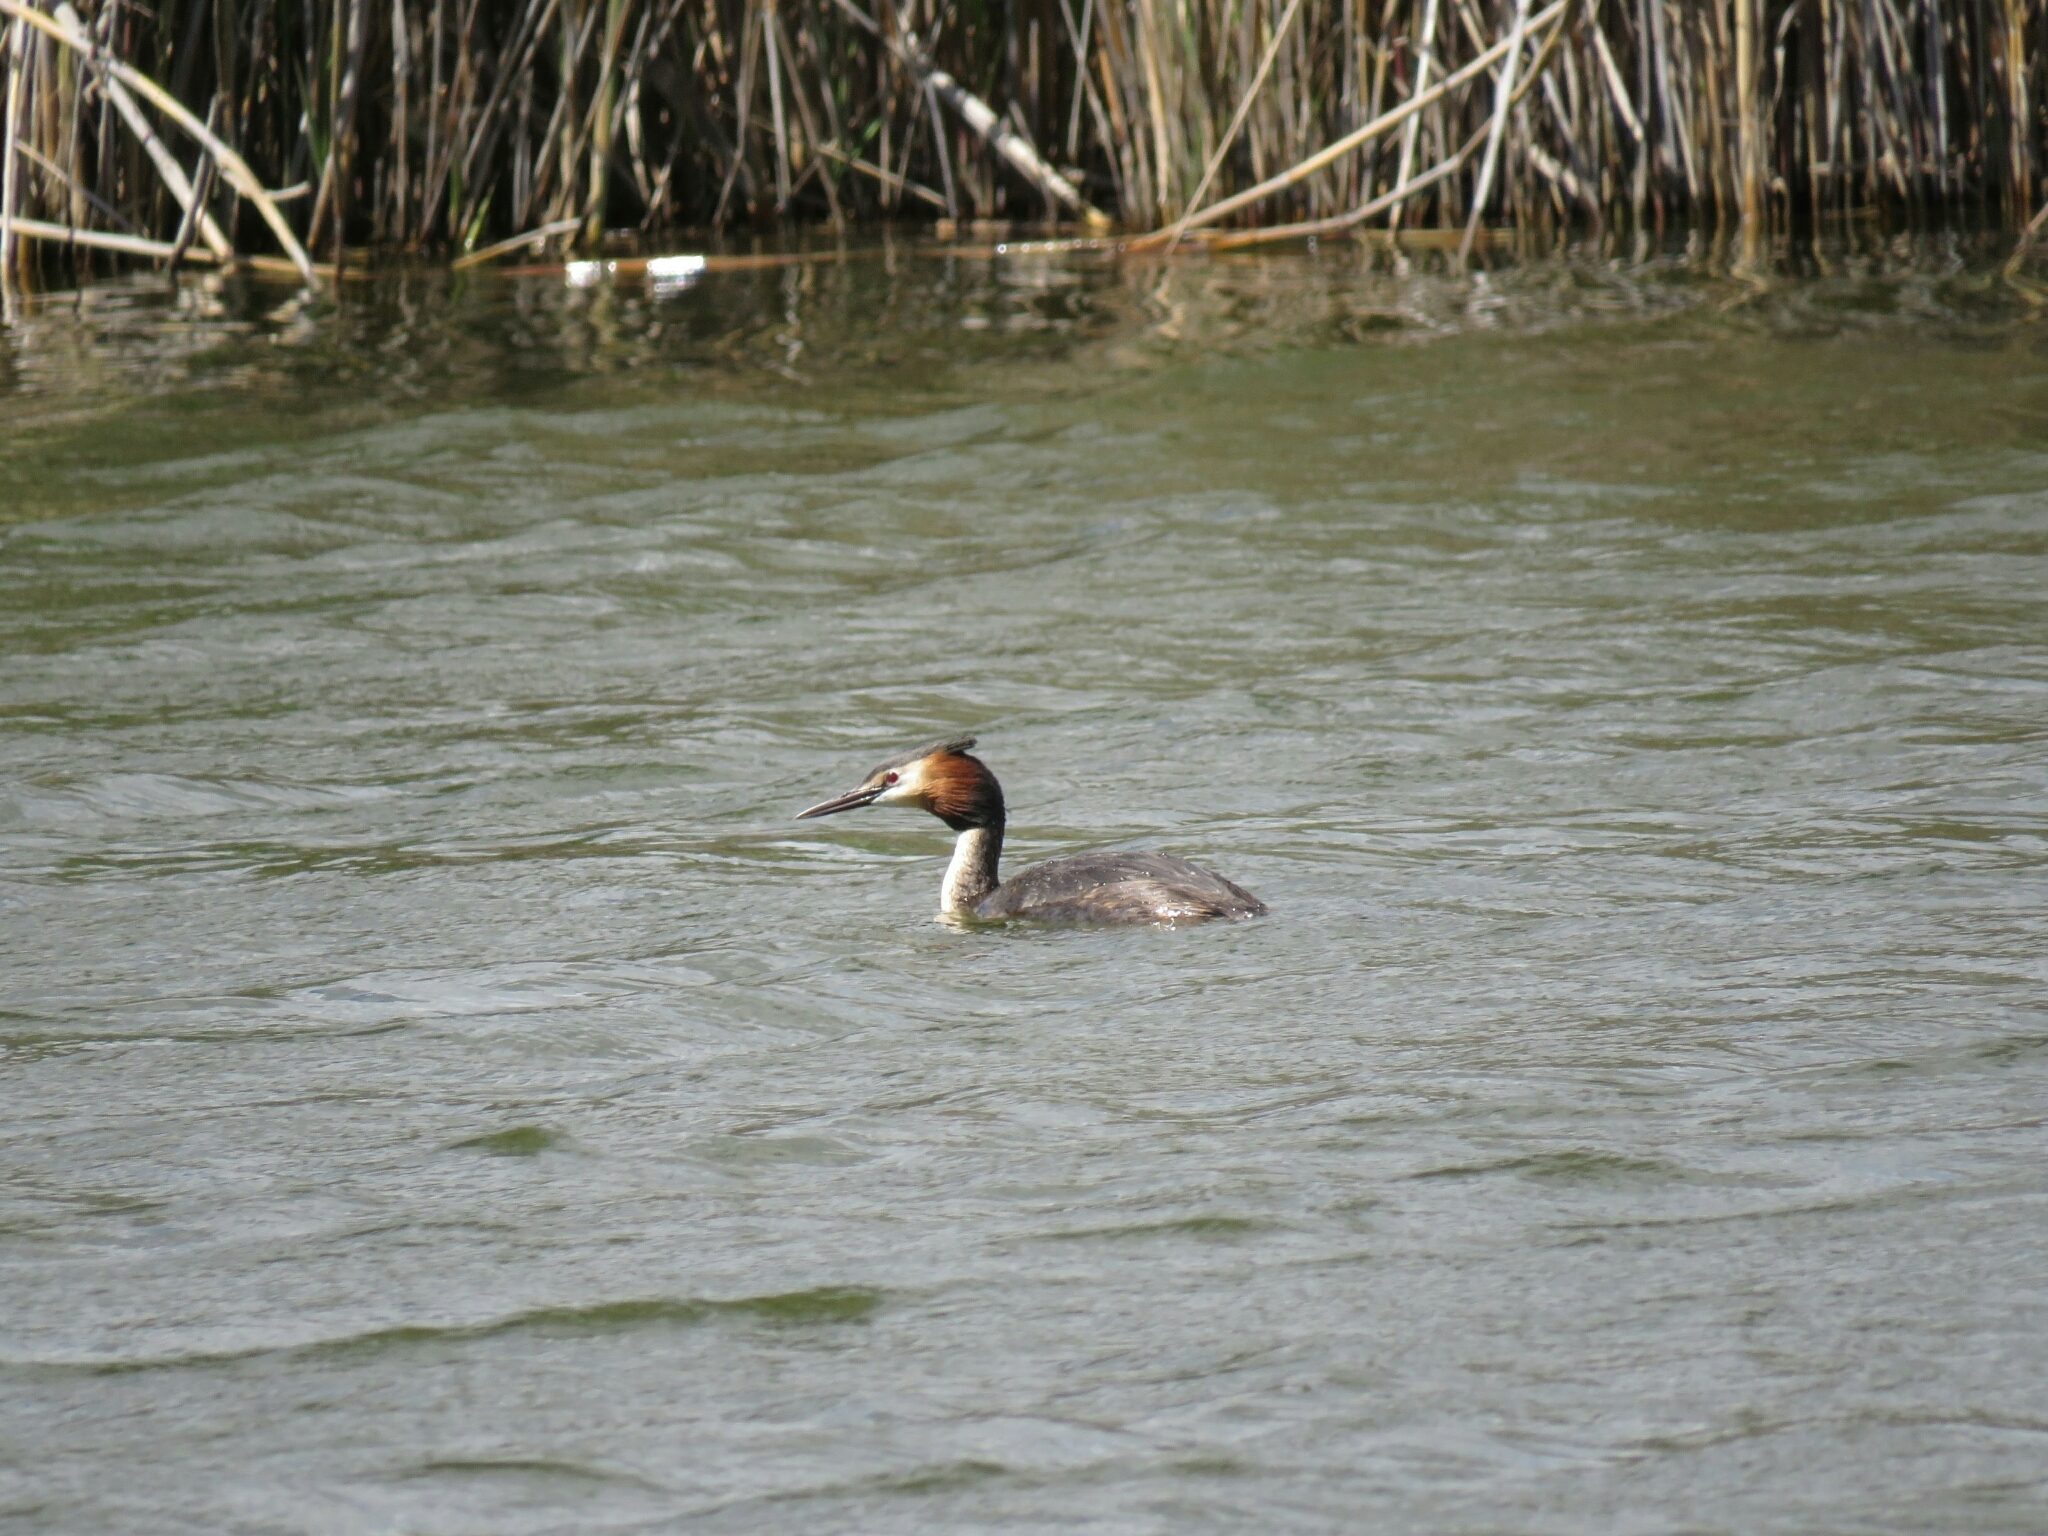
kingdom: Animalia
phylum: Chordata
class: Aves
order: Podicipediformes
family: Podicipedidae
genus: Podiceps
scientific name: Podiceps cristatus
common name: Great crested grebe
